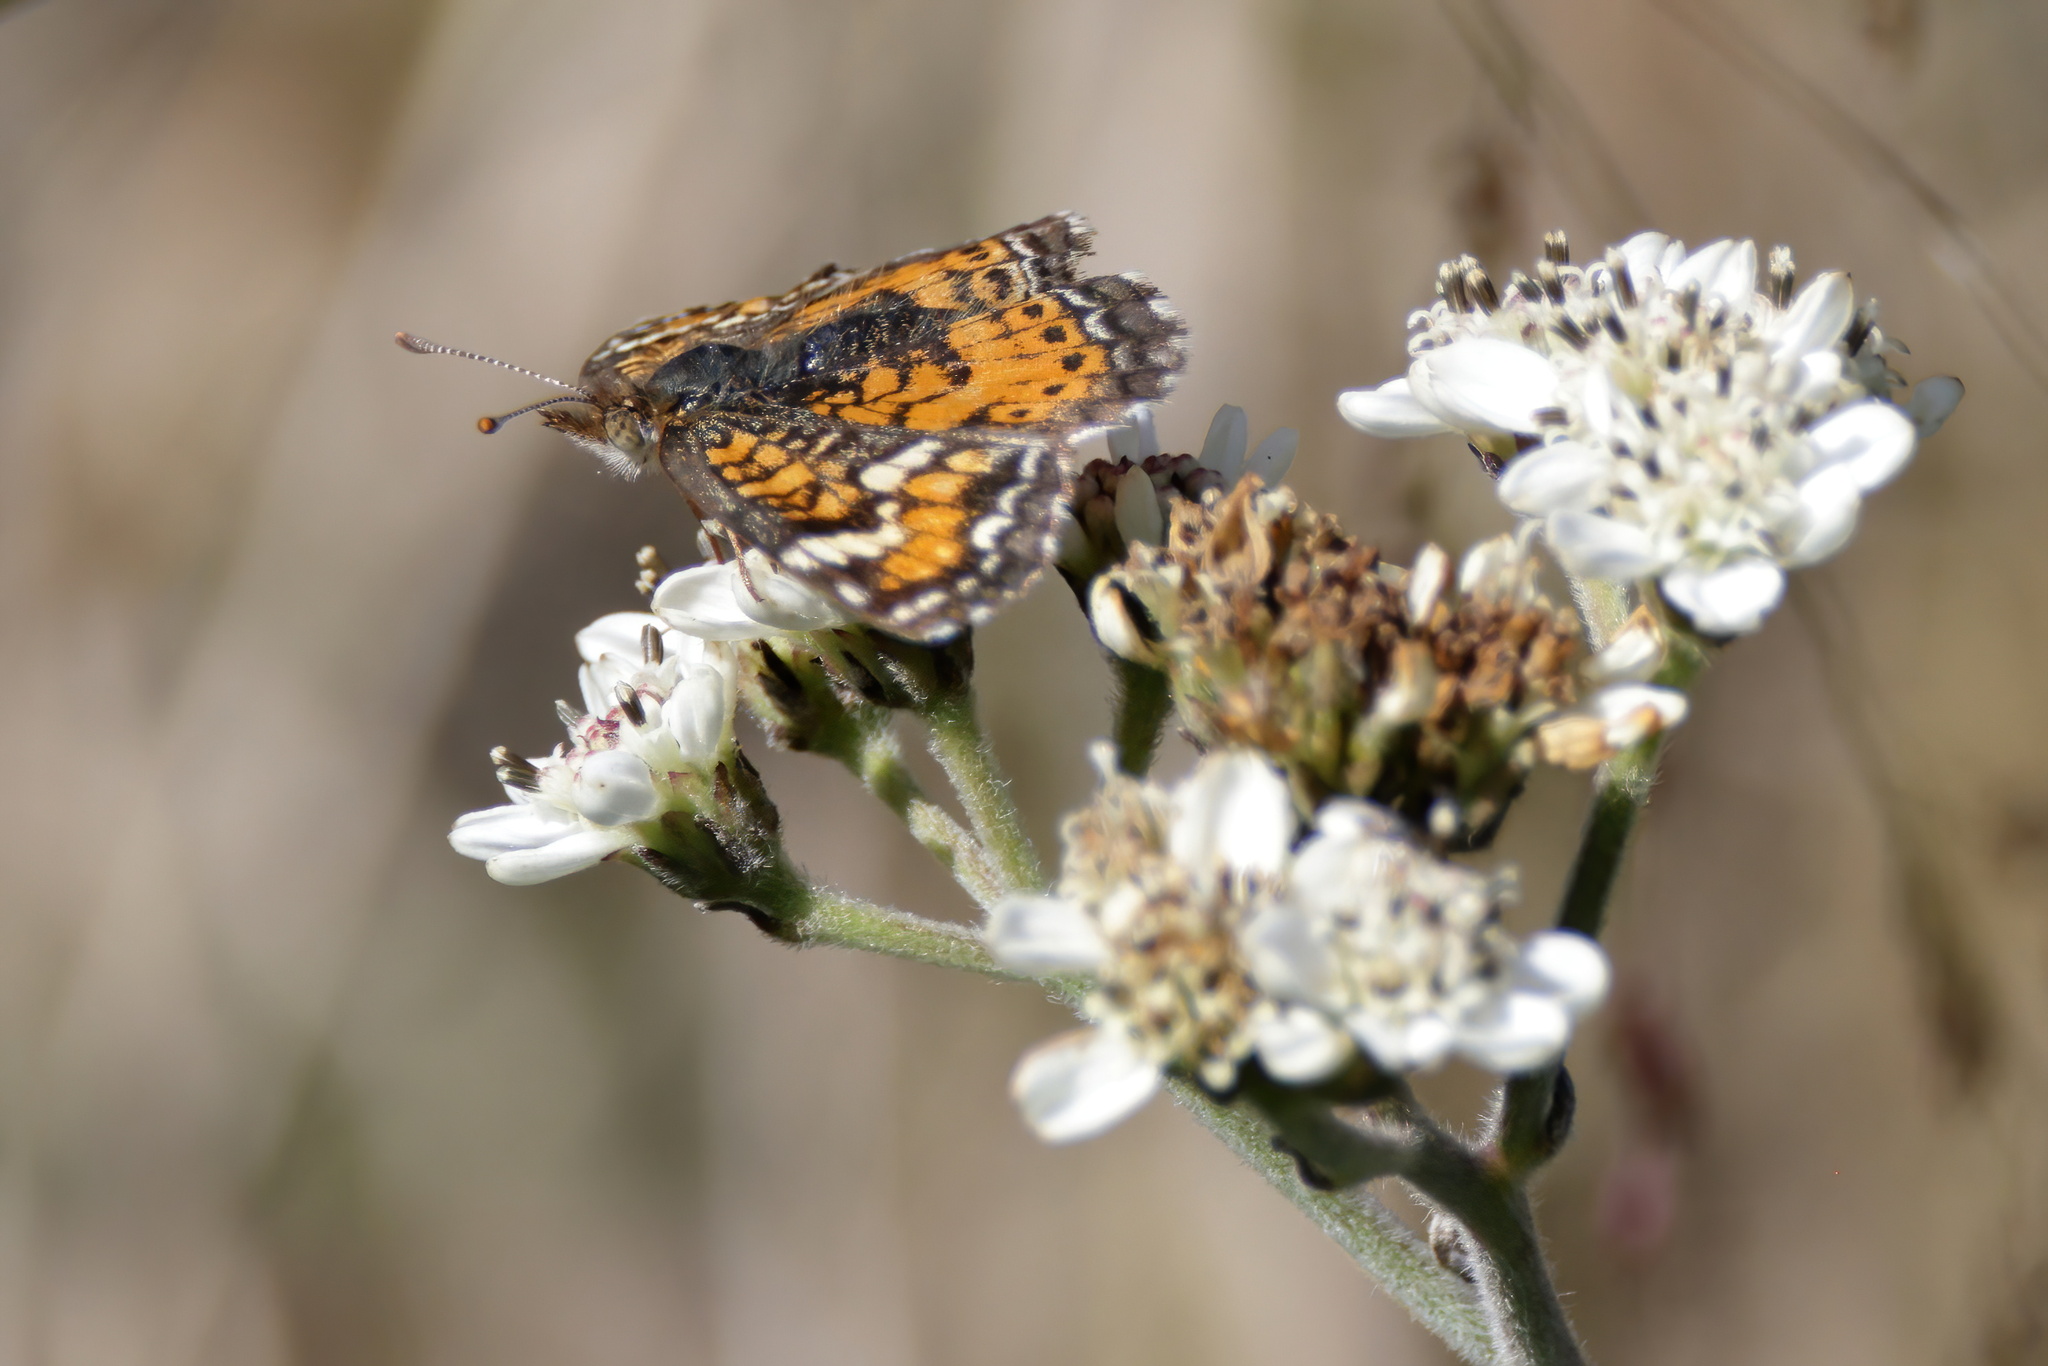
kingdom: Animalia
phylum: Arthropoda
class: Insecta
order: Lepidoptera
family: Nymphalidae
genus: Phyciodes
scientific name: Phyciodes phaon
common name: Phaon crescent
